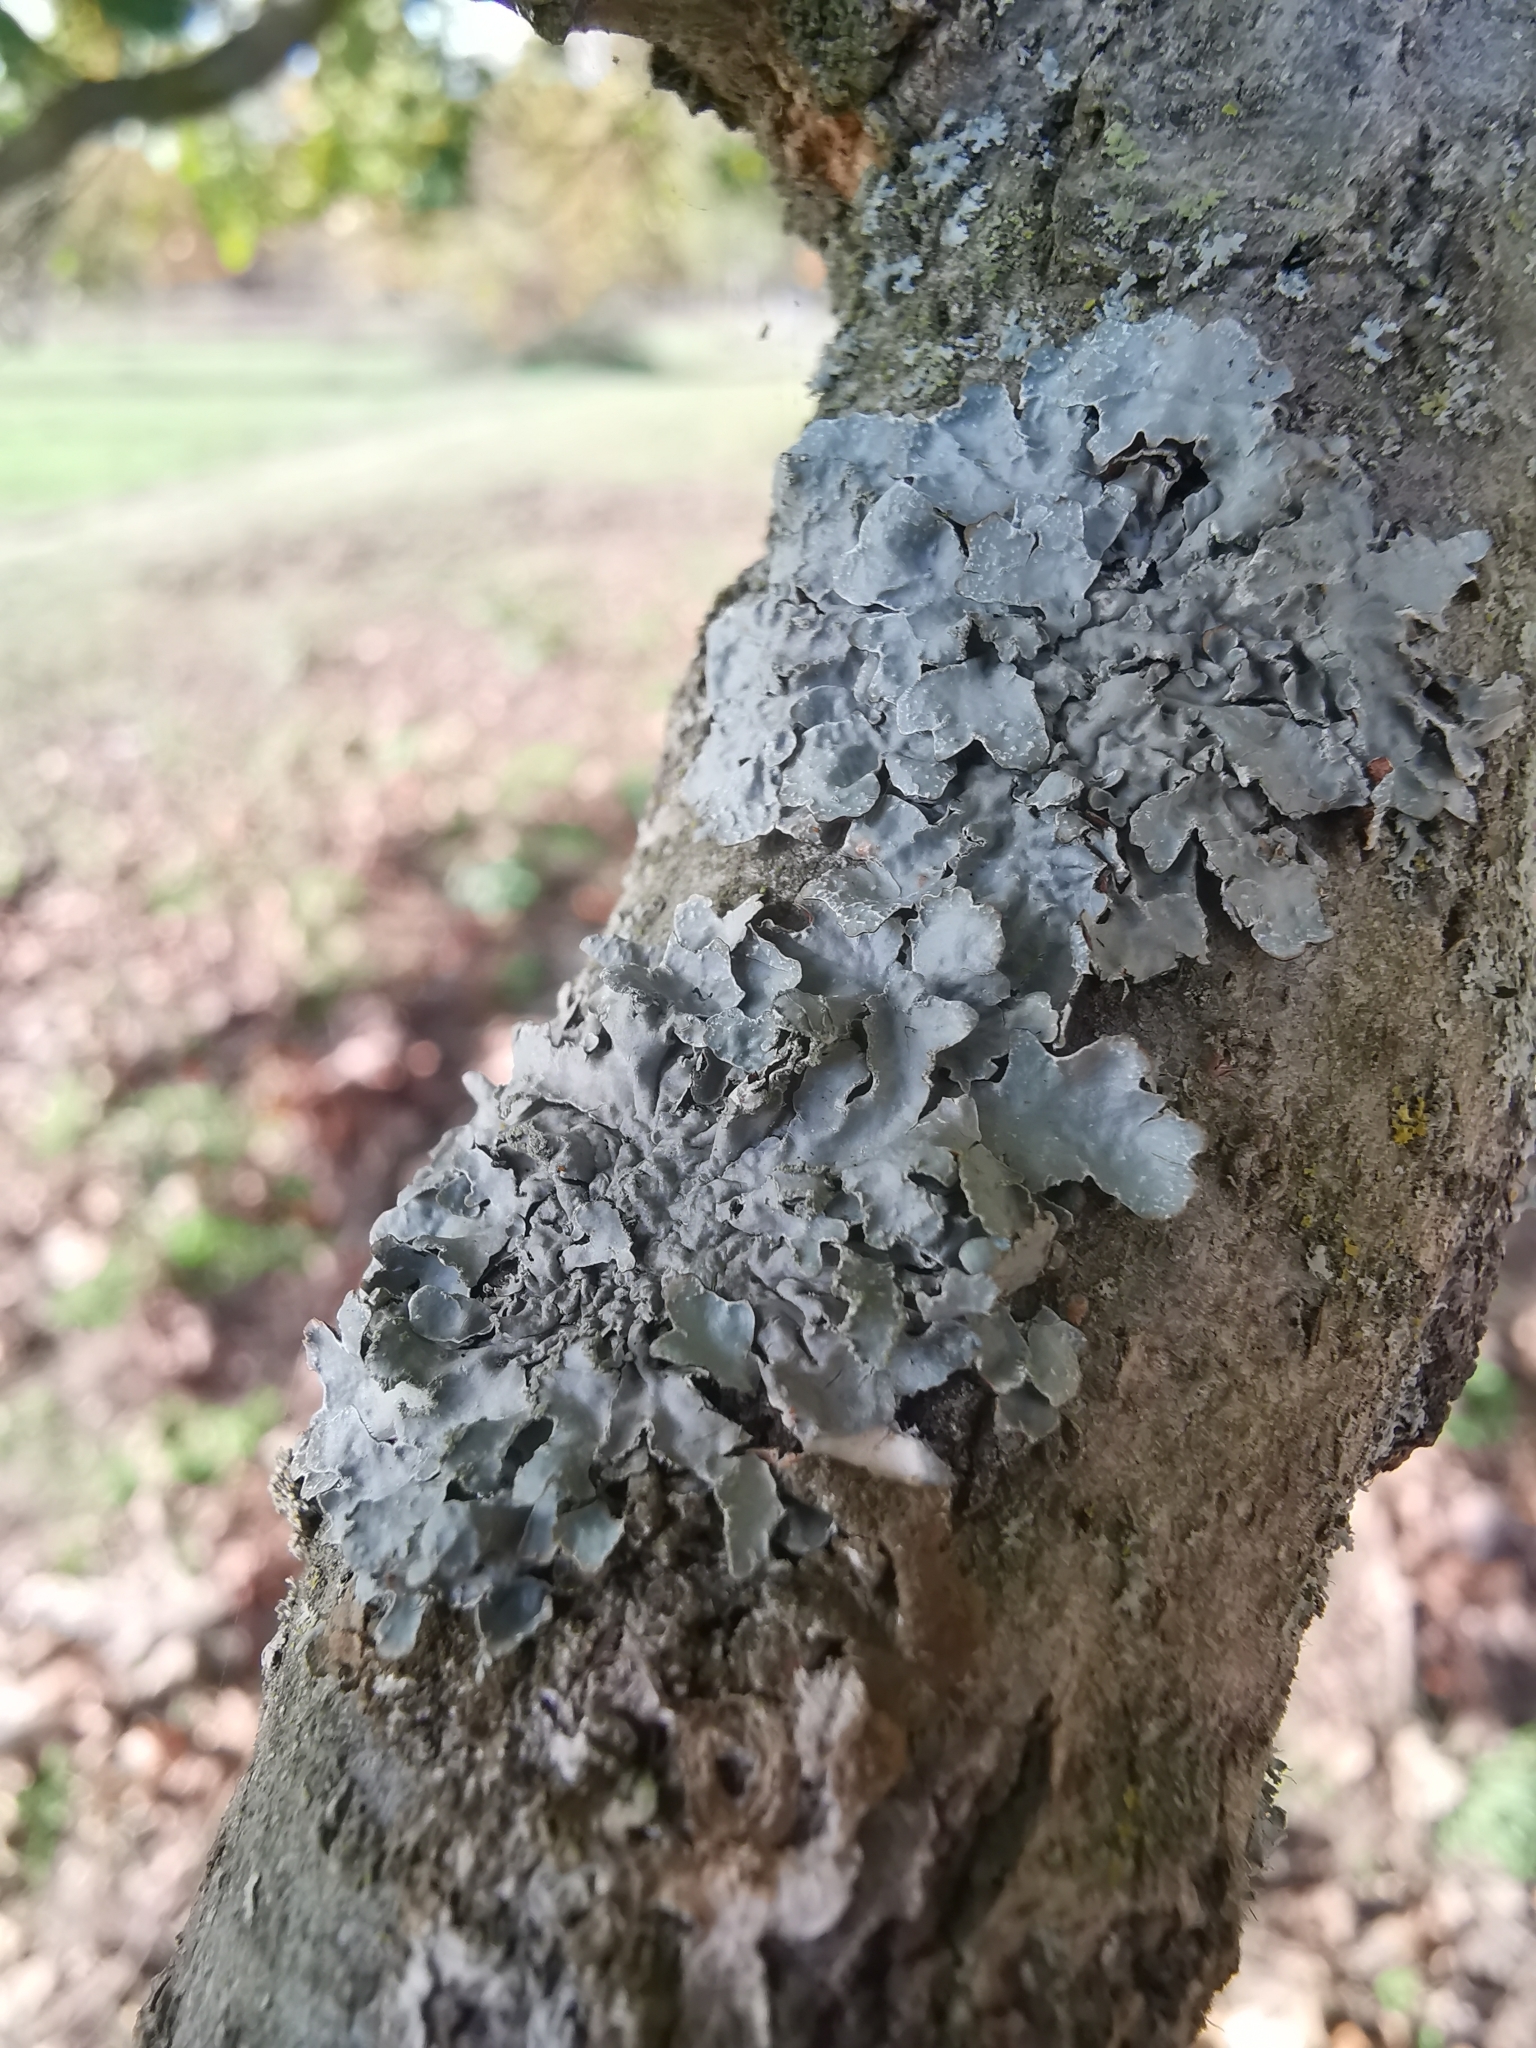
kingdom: Fungi
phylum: Ascomycota
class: Lecanoromycetes
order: Lecanorales
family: Parmeliaceae
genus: Parmelia
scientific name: Parmelia sulcata
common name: Netted shield lichen
